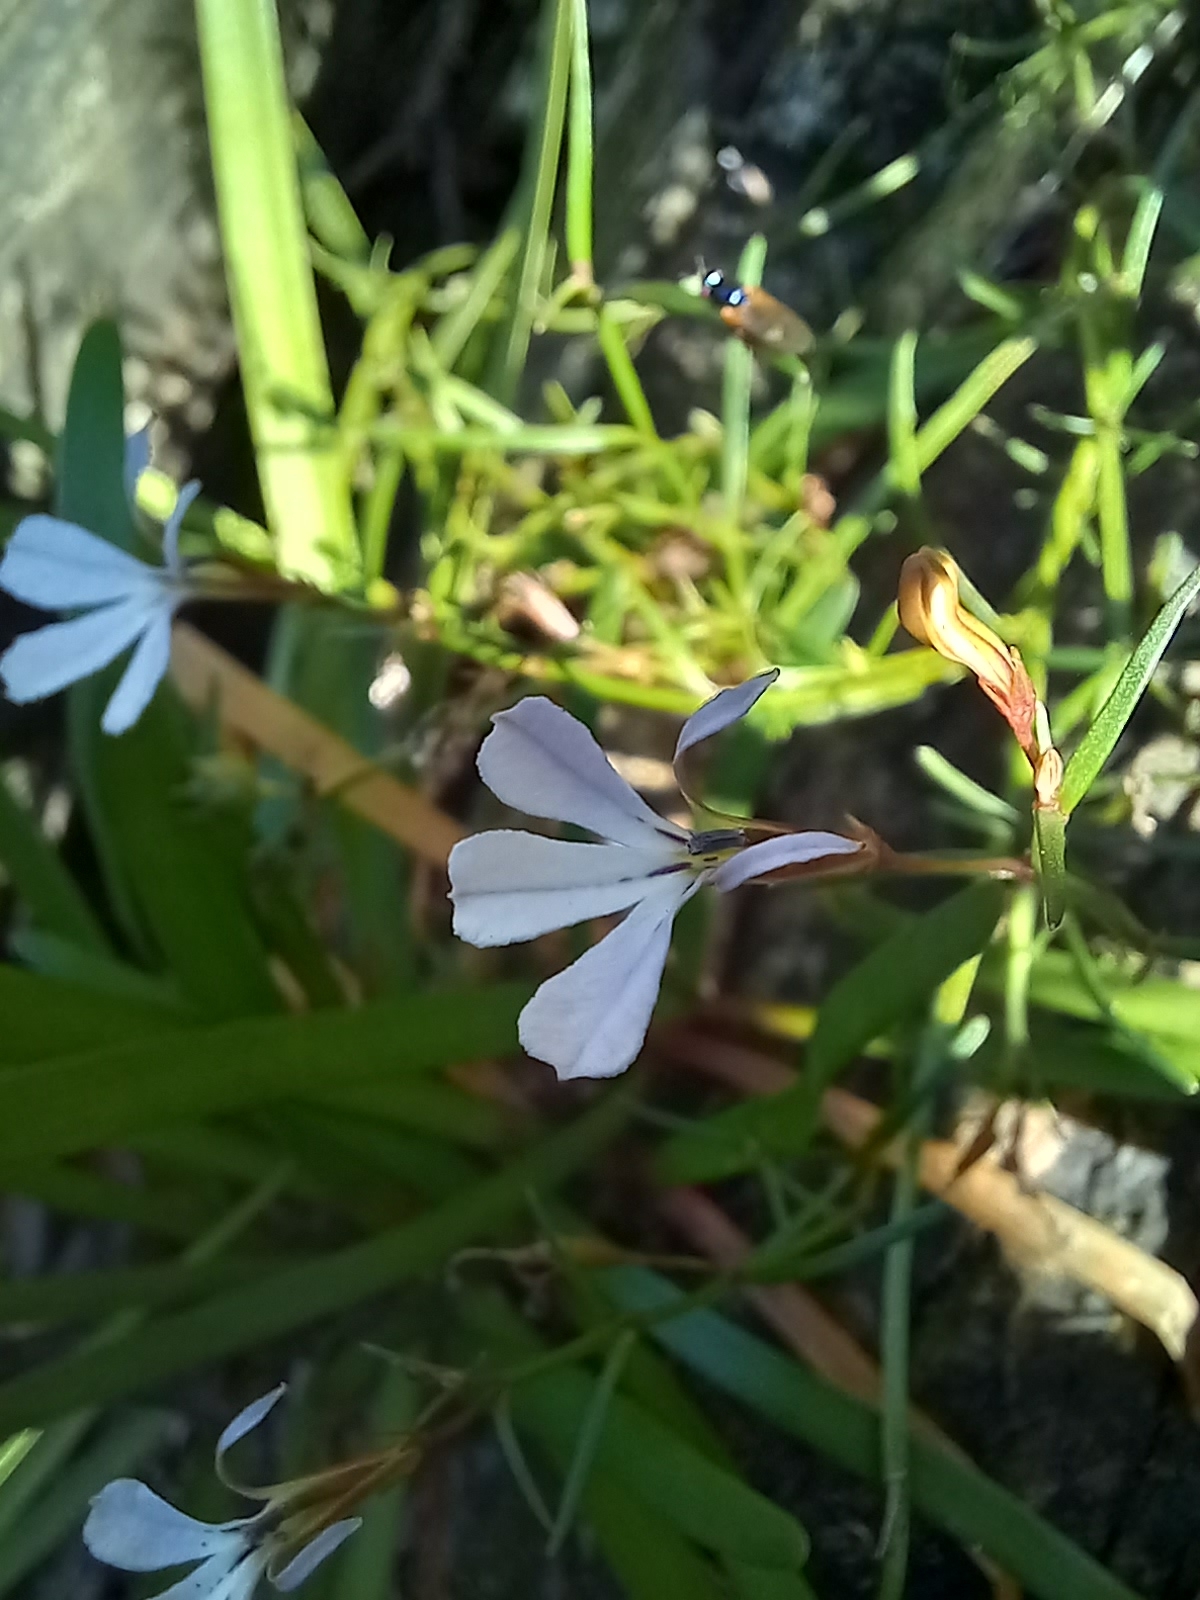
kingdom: Plantae
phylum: Tracheophyta
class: Magnoliopsida
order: Asterales
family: Campanulaceae
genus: Lobelia
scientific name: Lobelia anceps
